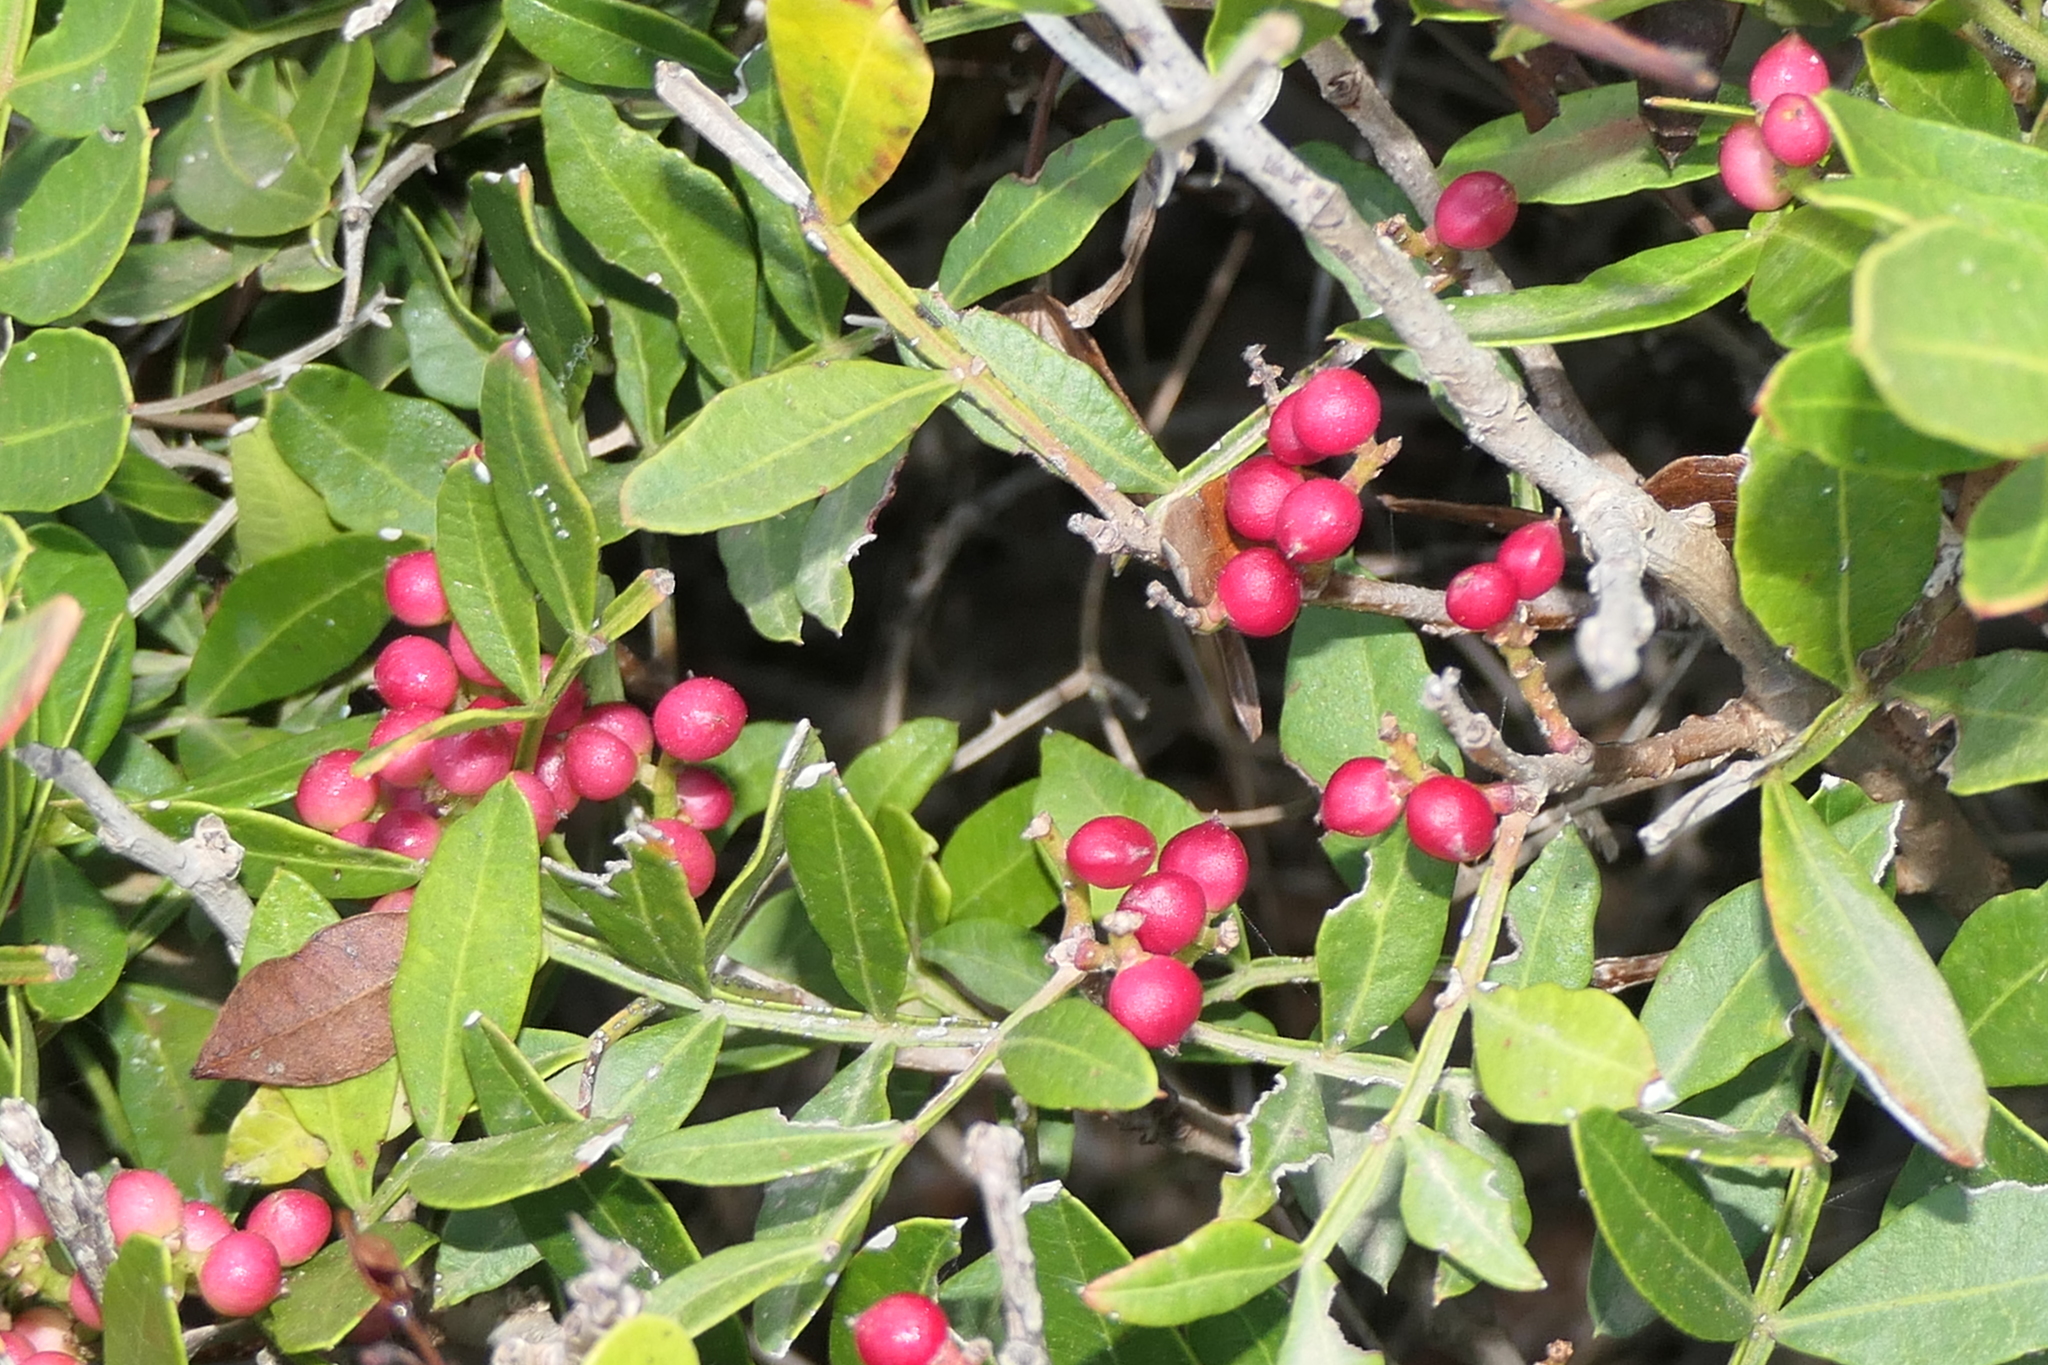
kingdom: Plantae
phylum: Tracheophyta
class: Magnoliopsida
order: Sapindales
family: Anacardiaceae
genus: Pistacia
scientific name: Pistacia lentiscus
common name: Lentisk
